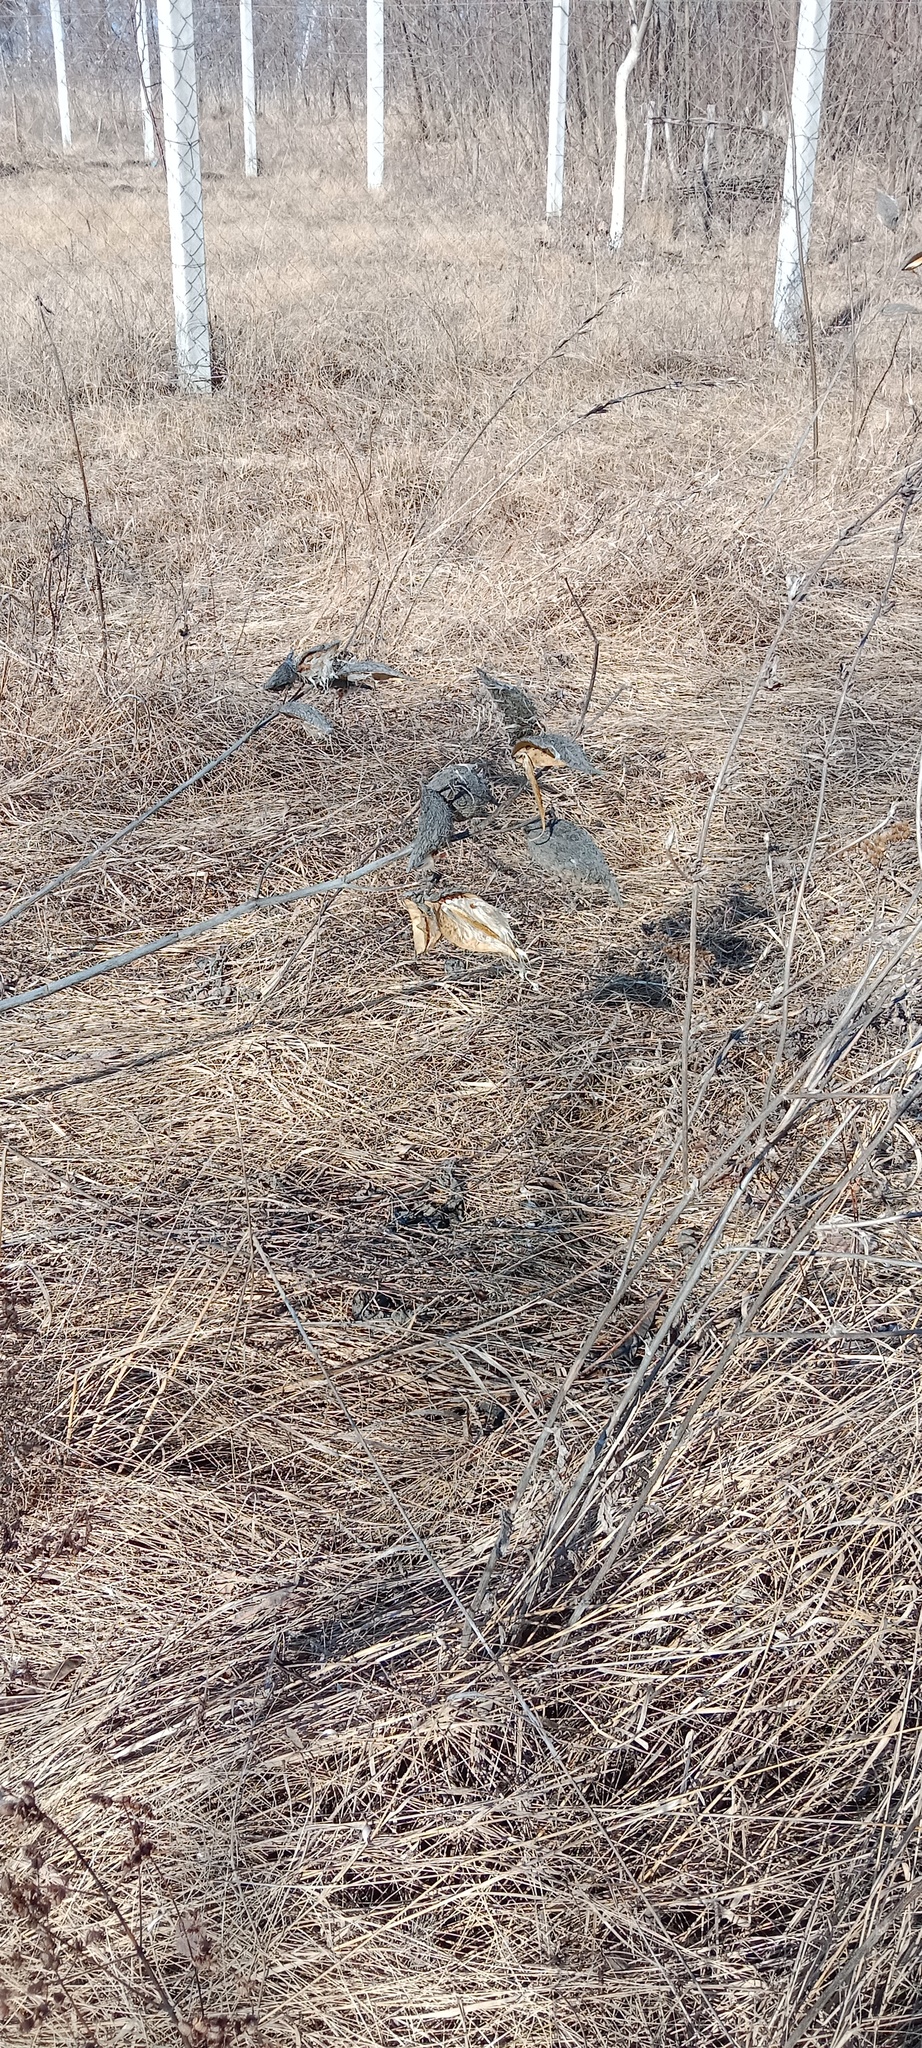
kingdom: Plantae
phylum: Tracheophyta
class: Magnoliopsida
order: Gentianales
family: Apocynaceae
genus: Asclepias
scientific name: Asclepias syriaca
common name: Common milkweed
